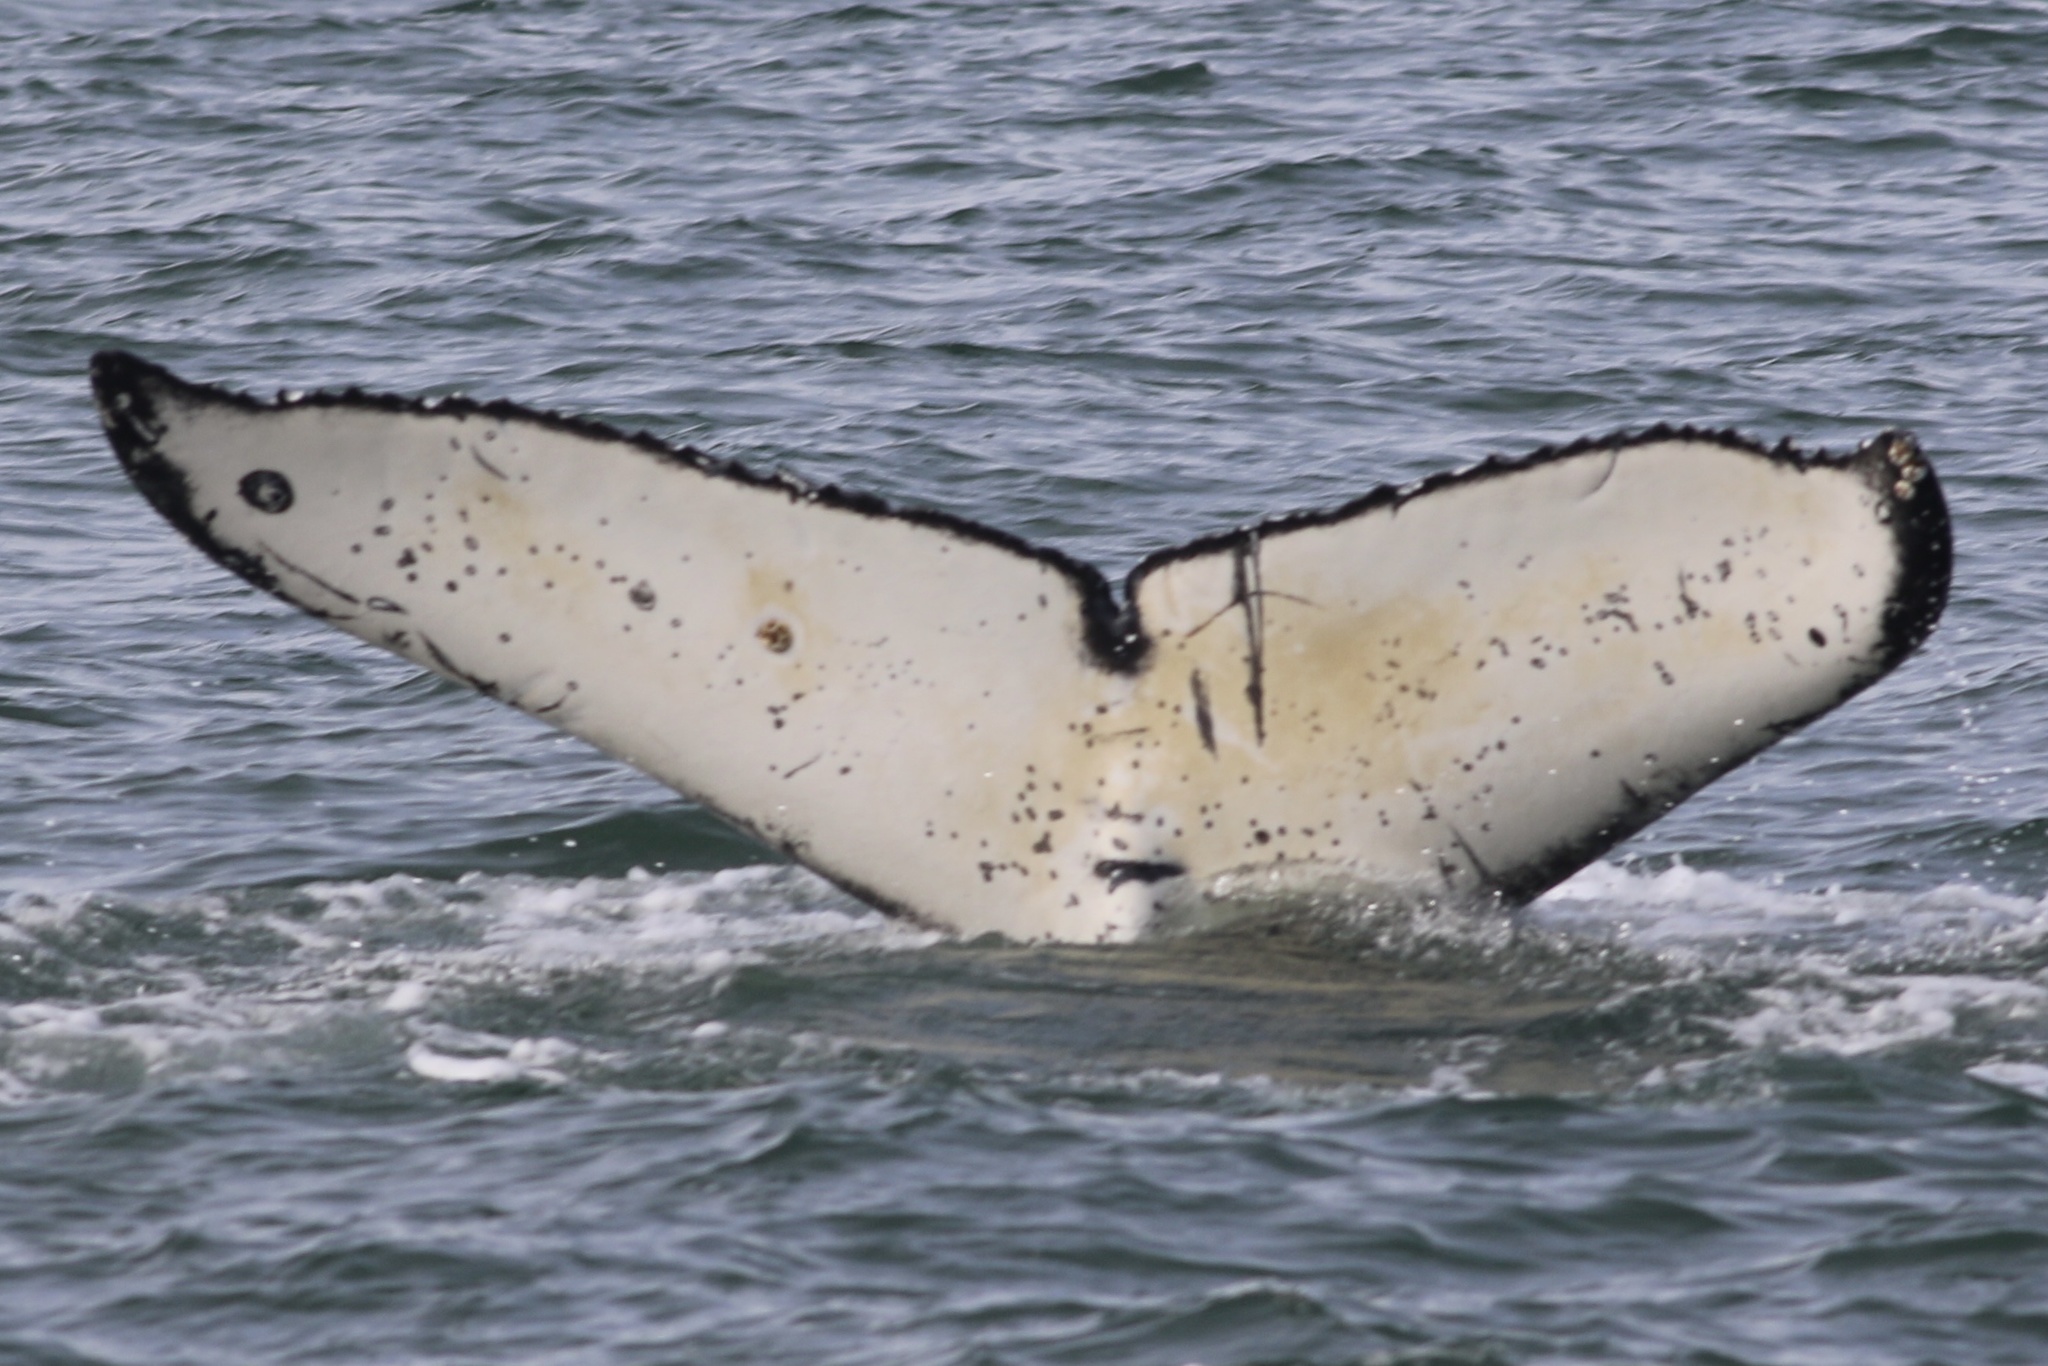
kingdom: Animalia
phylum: Chordata
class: Mammalia
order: Cetacea
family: Balaenopteridae
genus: Megaptera
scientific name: Megaptera novaeangliae
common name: Humpback whale
